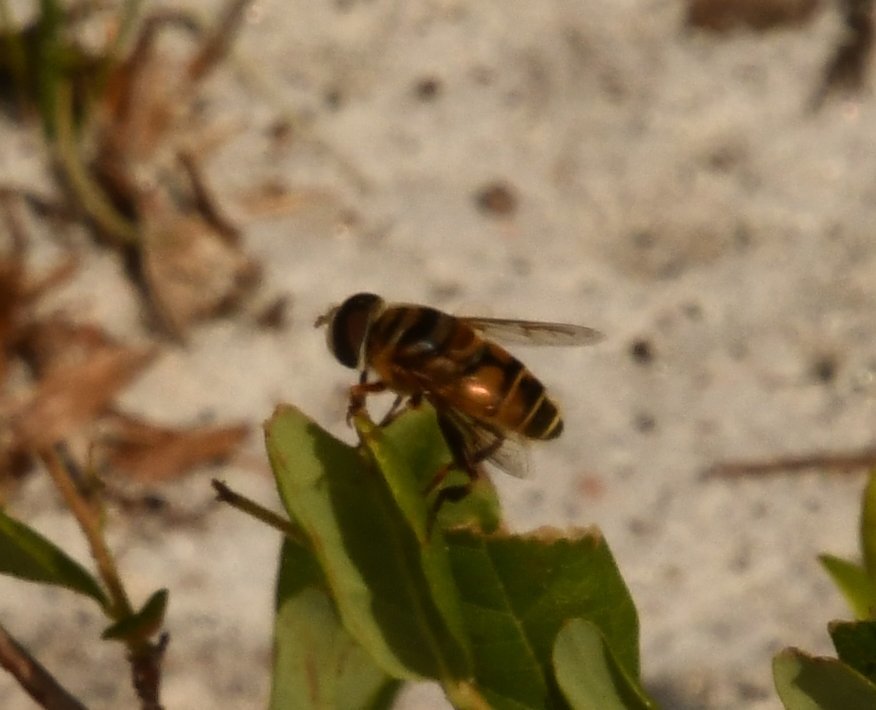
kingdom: Animalia
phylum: Arthropoda
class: Insecta
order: Diptera
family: Syrphidae
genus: Palpada
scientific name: Palpada vinetorum
